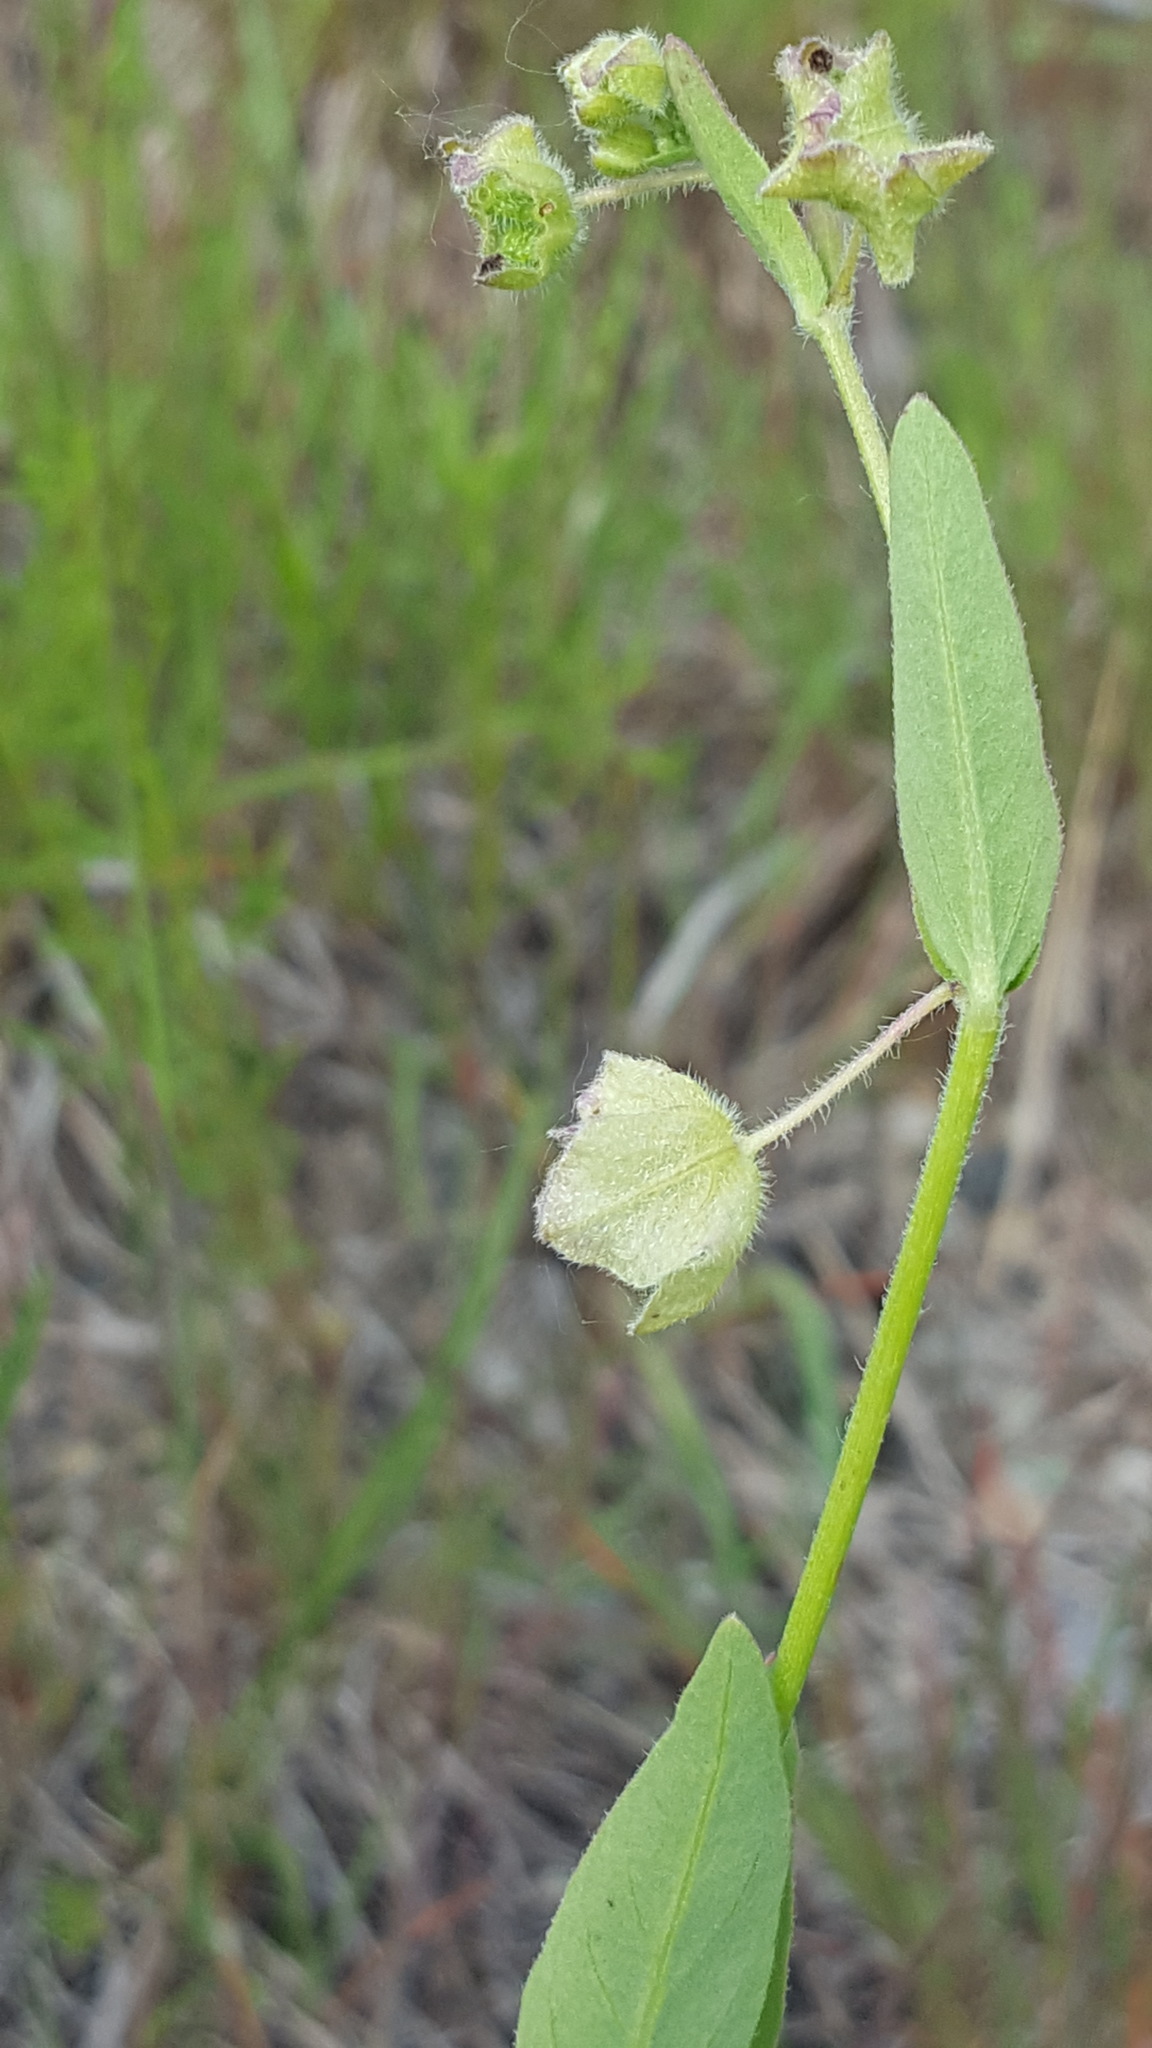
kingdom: Plantae
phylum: Tracheophyta
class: Magnoliopsida
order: Caryophyllales
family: Nyctaginaceae
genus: Mirabilis
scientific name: Mirabilis albida
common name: Hairy four-o'clock
